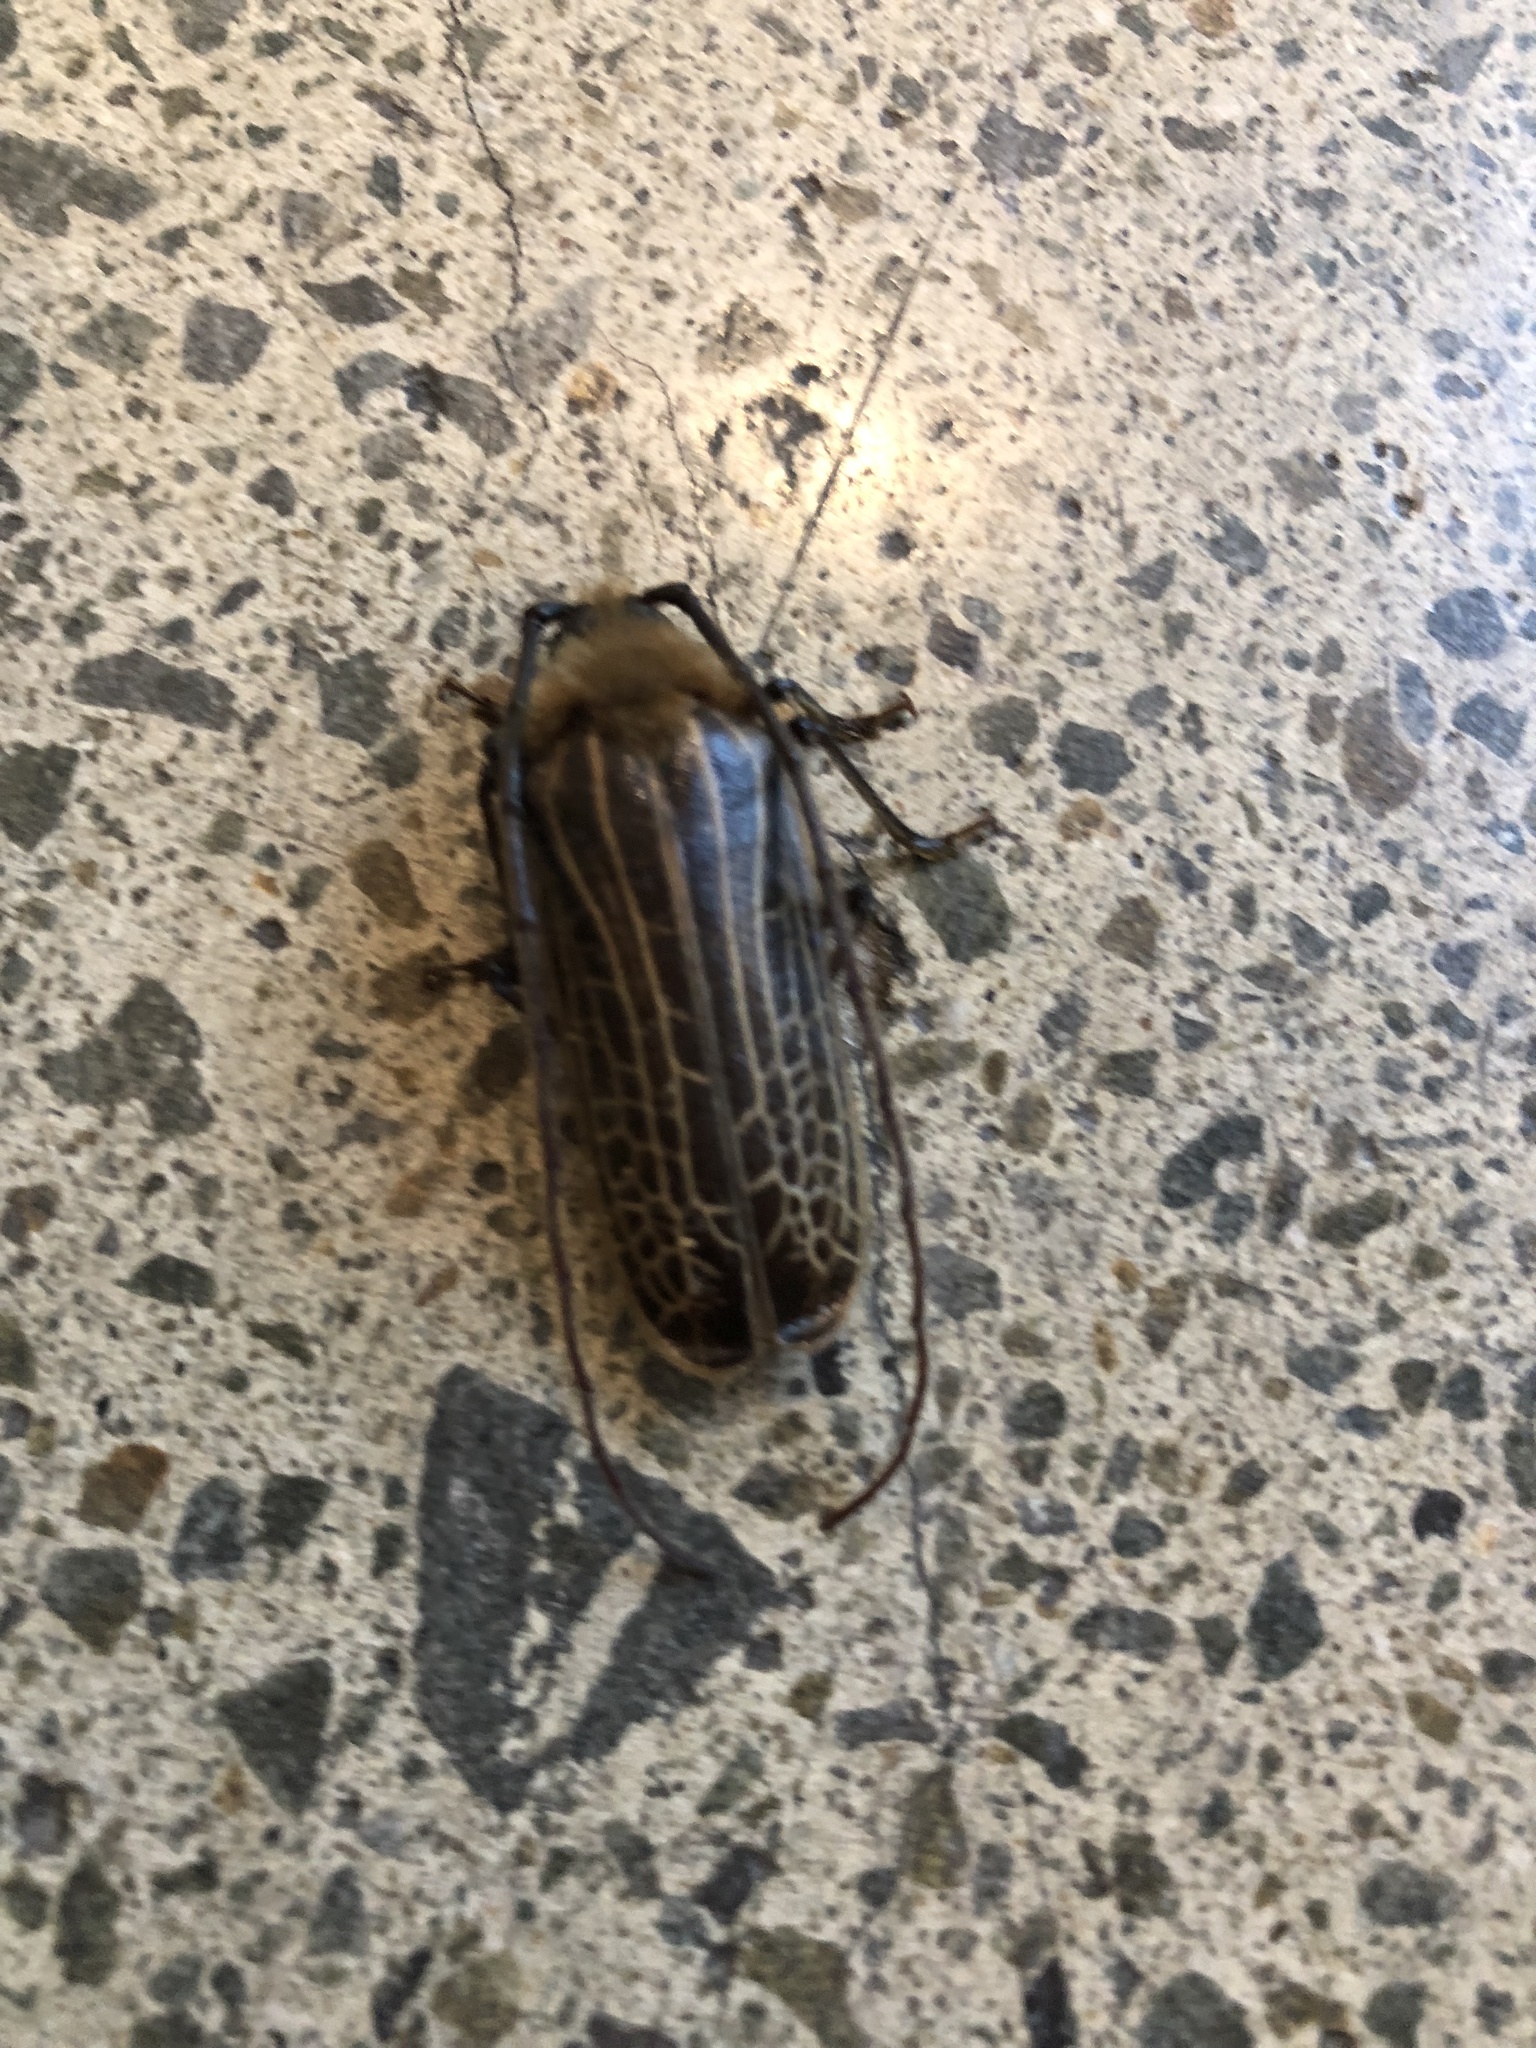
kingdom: Animalia
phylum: Arthropoda
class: Insecta
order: Coleoptera
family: Cerambycidae
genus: Prionoplus
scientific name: Prionoplus reticularis
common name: Huhu beetle
